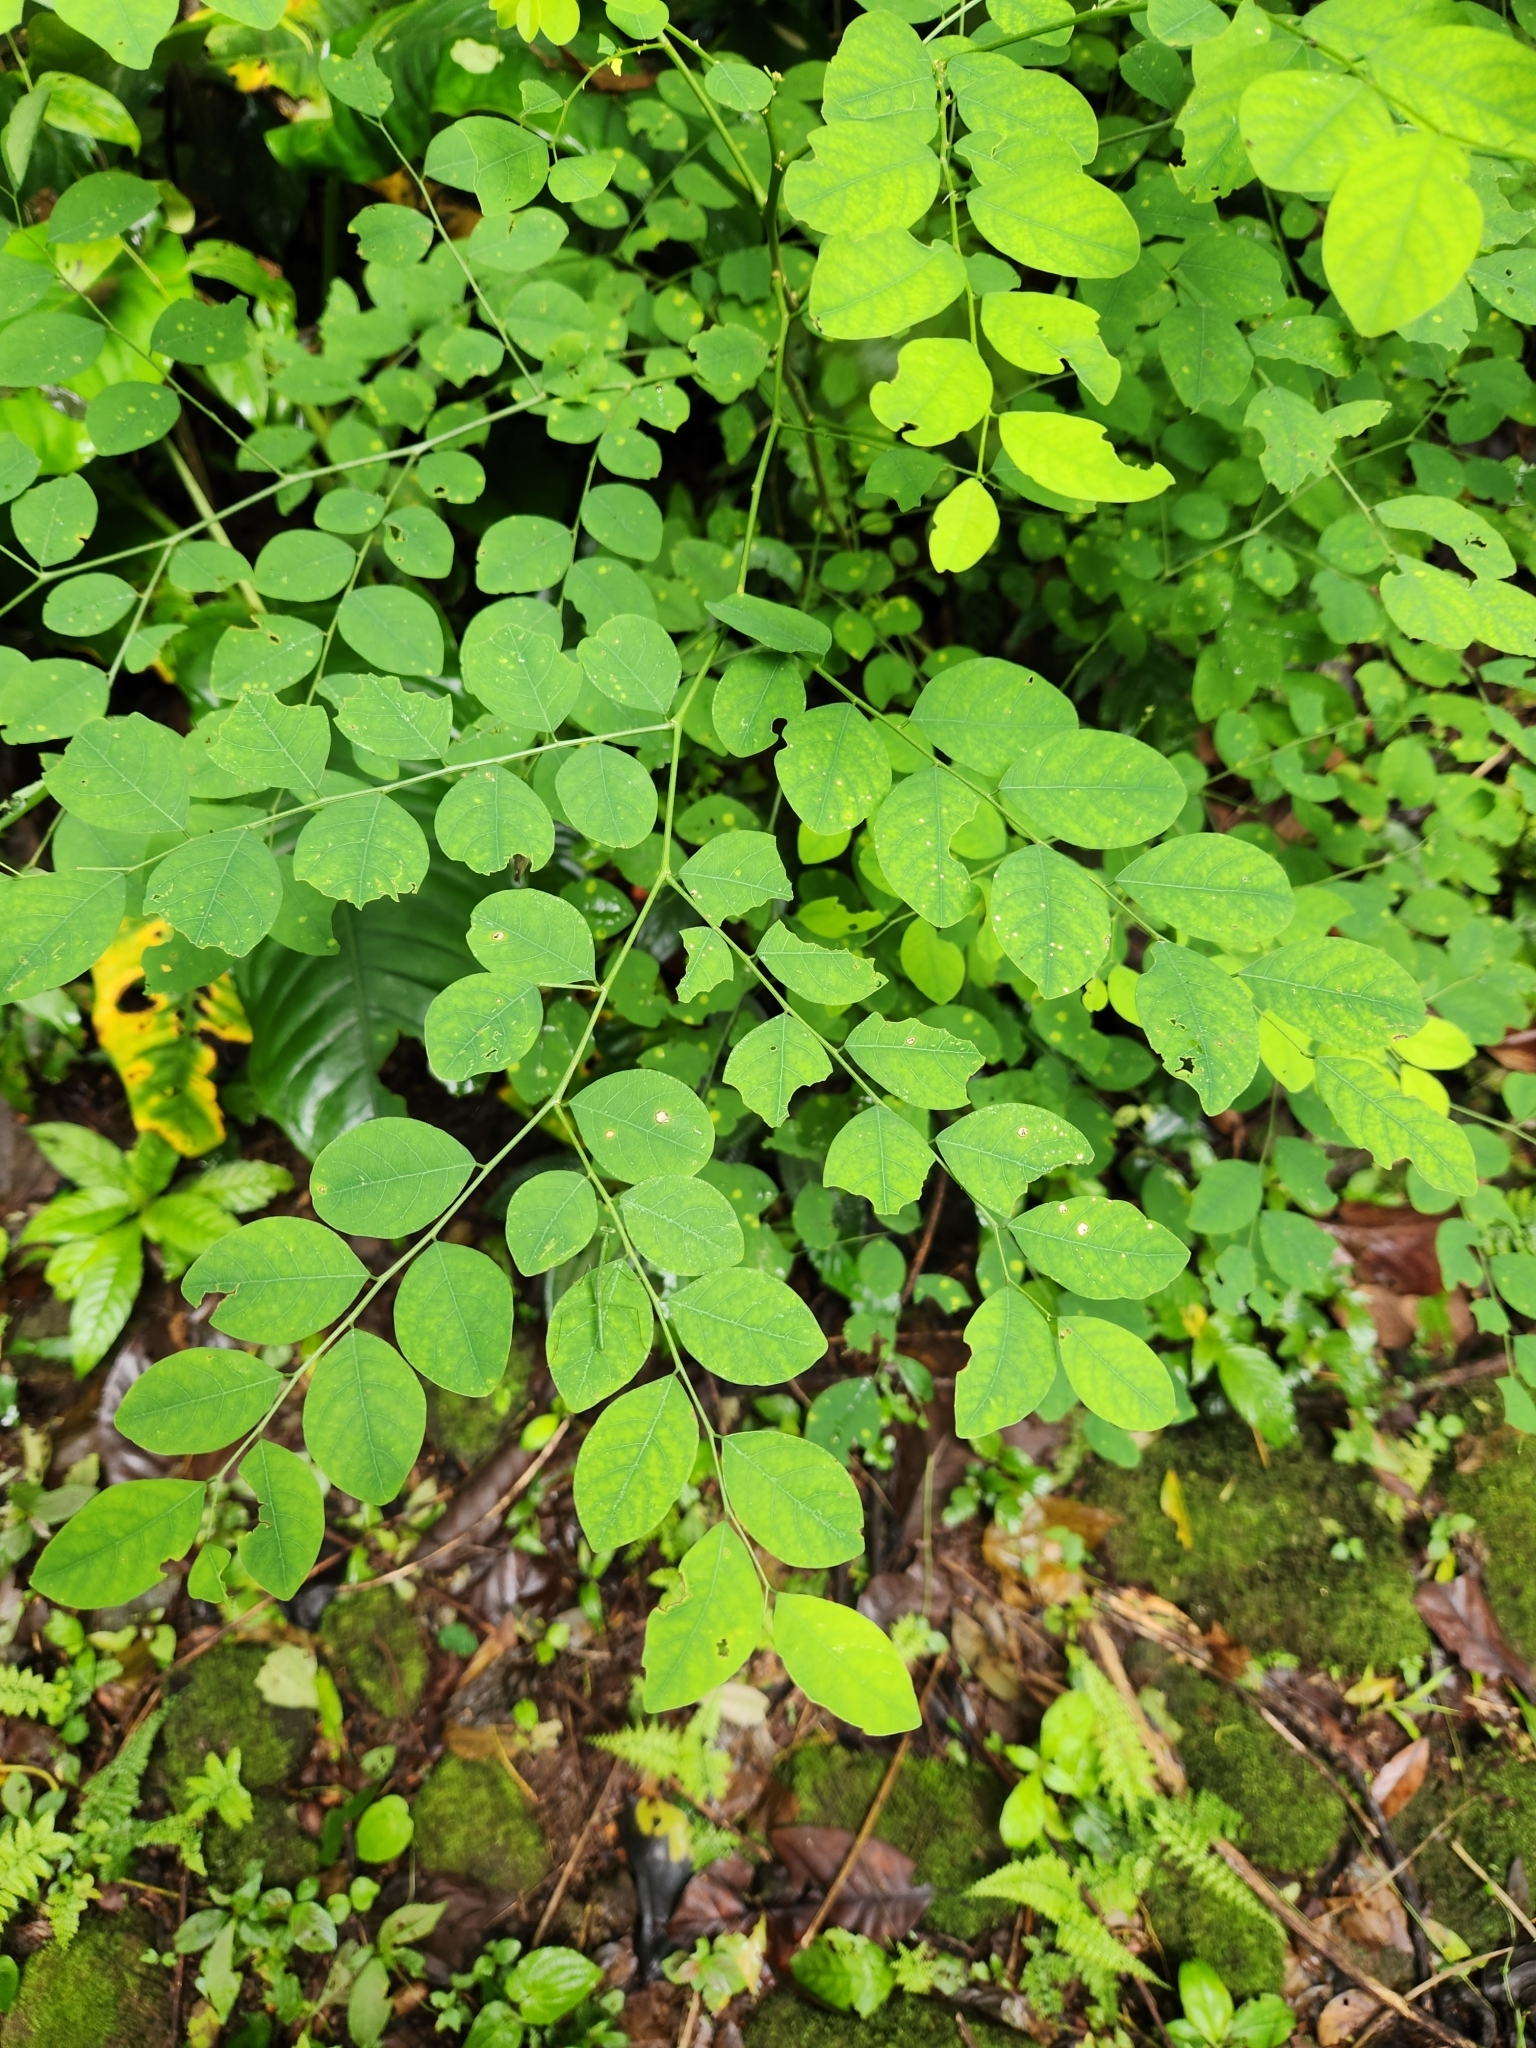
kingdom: Plantae
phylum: Tracheophyta
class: Magnoliopsida
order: Malpighiales
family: Phyllanthaceae
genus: Phyllanthus
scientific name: Phyllanthus tenellus
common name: Mascarene island leaf-flower
